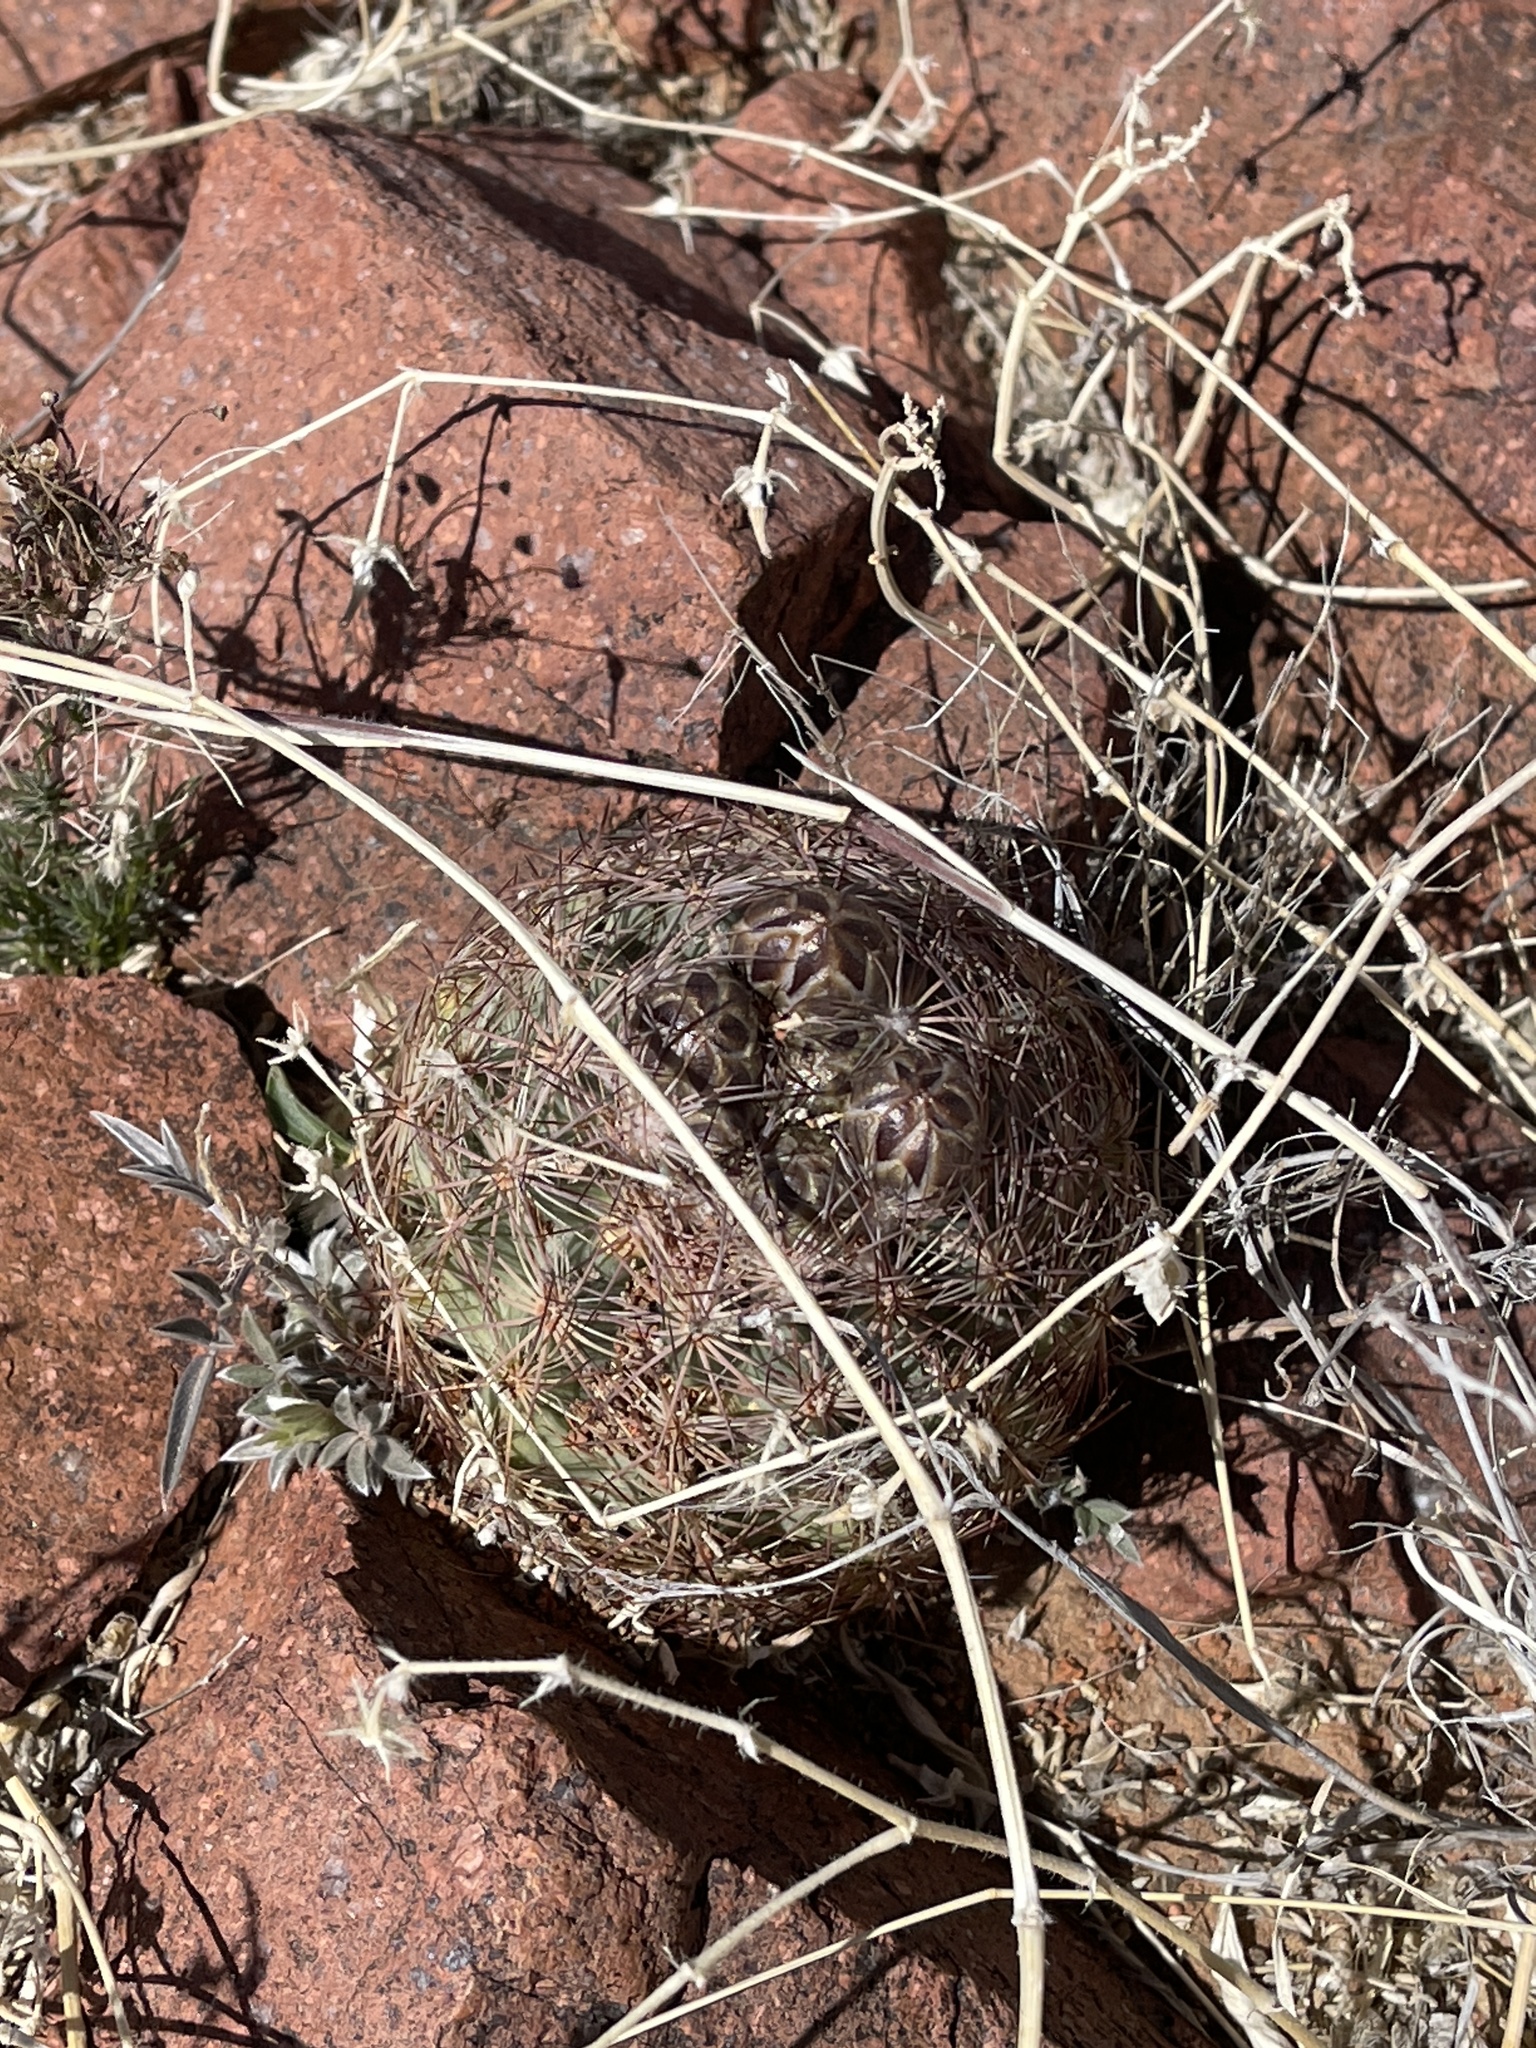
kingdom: Plantae
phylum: Tracheophyta
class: Magnoliopsida
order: Caryophyllales
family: Cactaceae
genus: Sclerocactus
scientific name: Sclerocactus intertextus
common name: White fish-hook cactus
